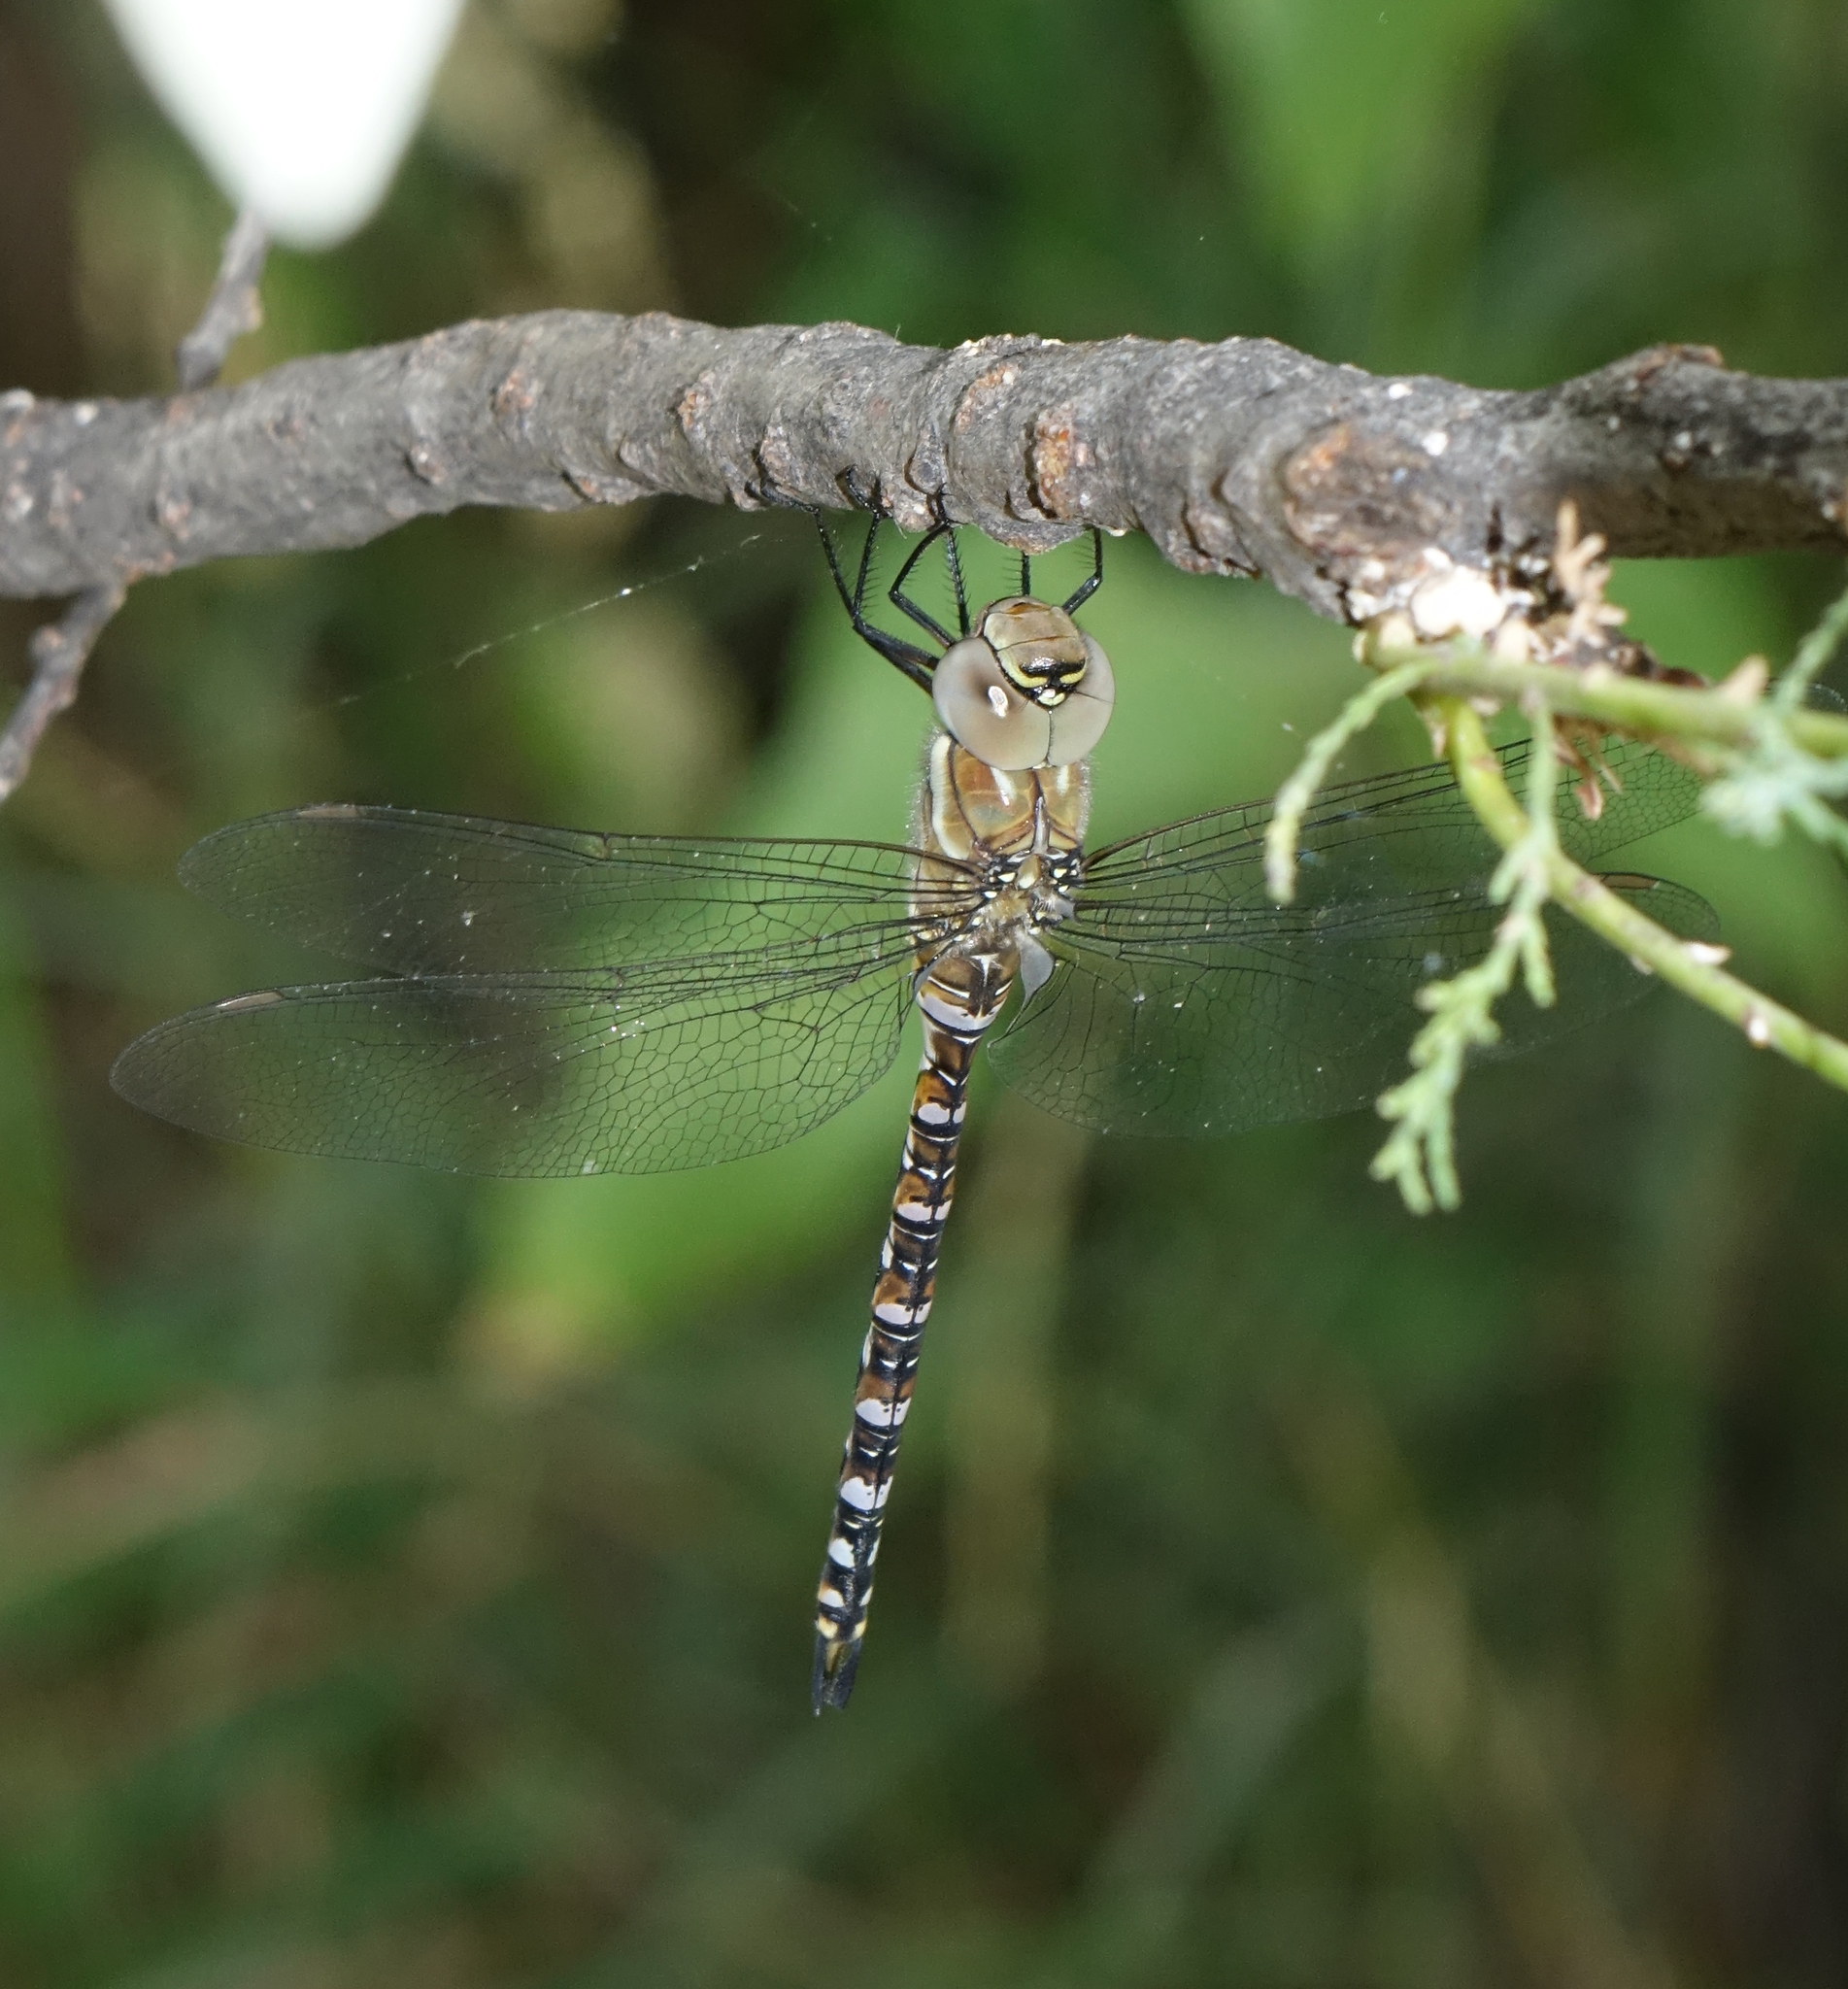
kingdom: Animalia
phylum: Arthropoda
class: Insecta
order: Odonata
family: Aeshnidae
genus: Aeshna
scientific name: Aeshna mixta
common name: Migrant hawker
